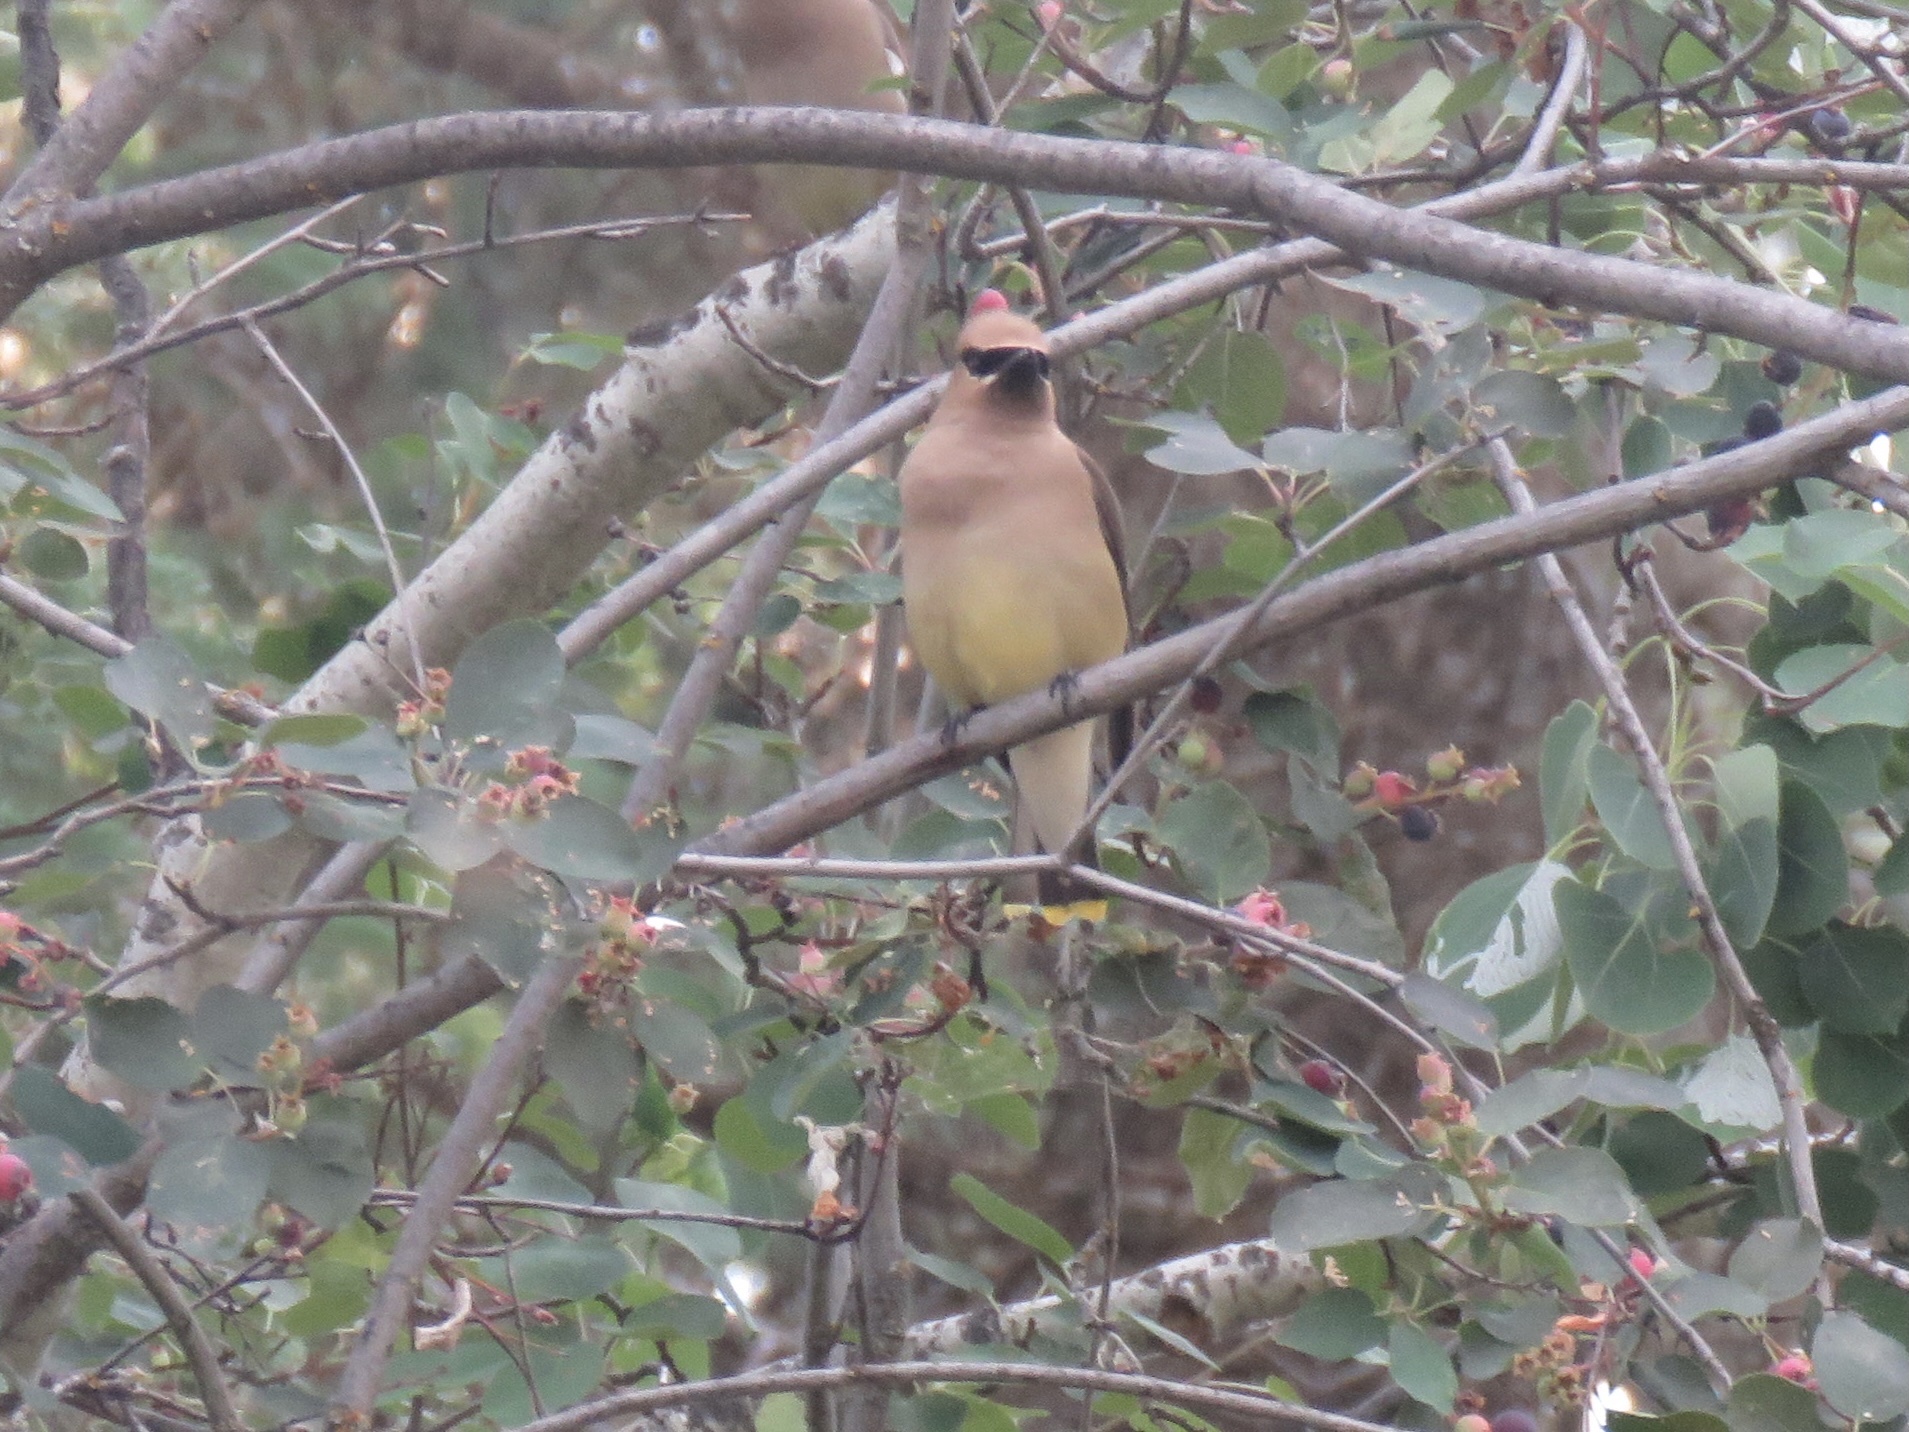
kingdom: Animalia
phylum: Chordata
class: Aves
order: Passeriformes
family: Bombycillidae
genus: Bombycilla
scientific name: Bombycilla cedrorum
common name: Cedar waxwing
